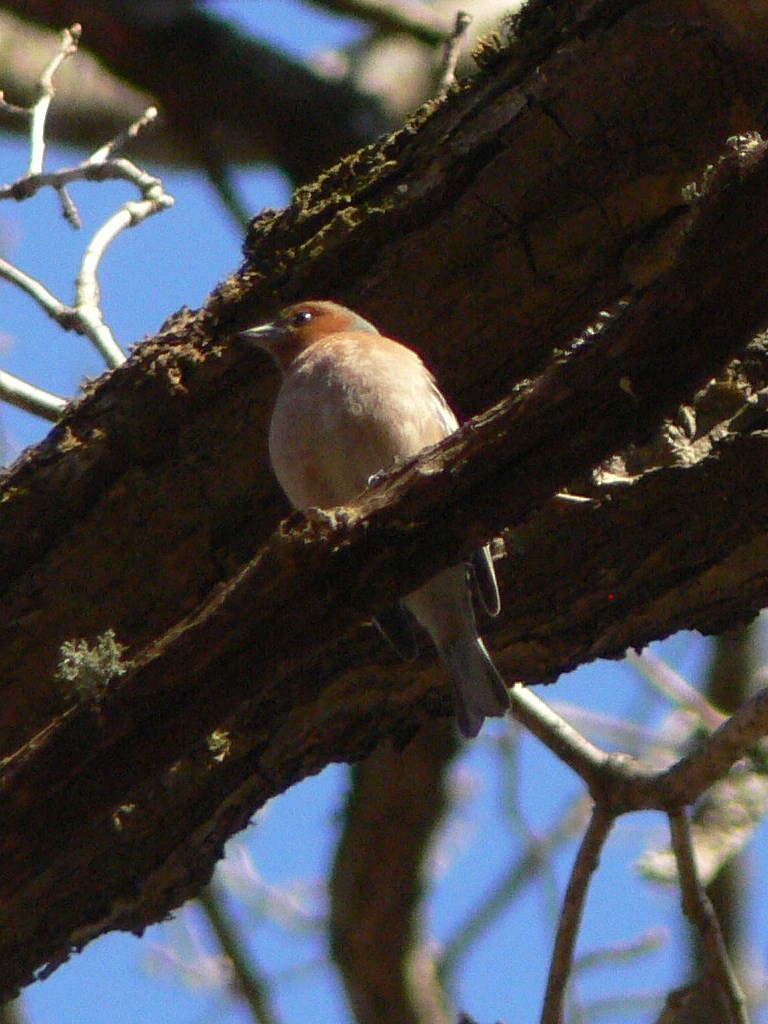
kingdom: Animalia
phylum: Chordata
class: Aves
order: Passeriformes
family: Fringillidae
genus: Fringilla
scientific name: Fringilla coelebs
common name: Common chaffinch
